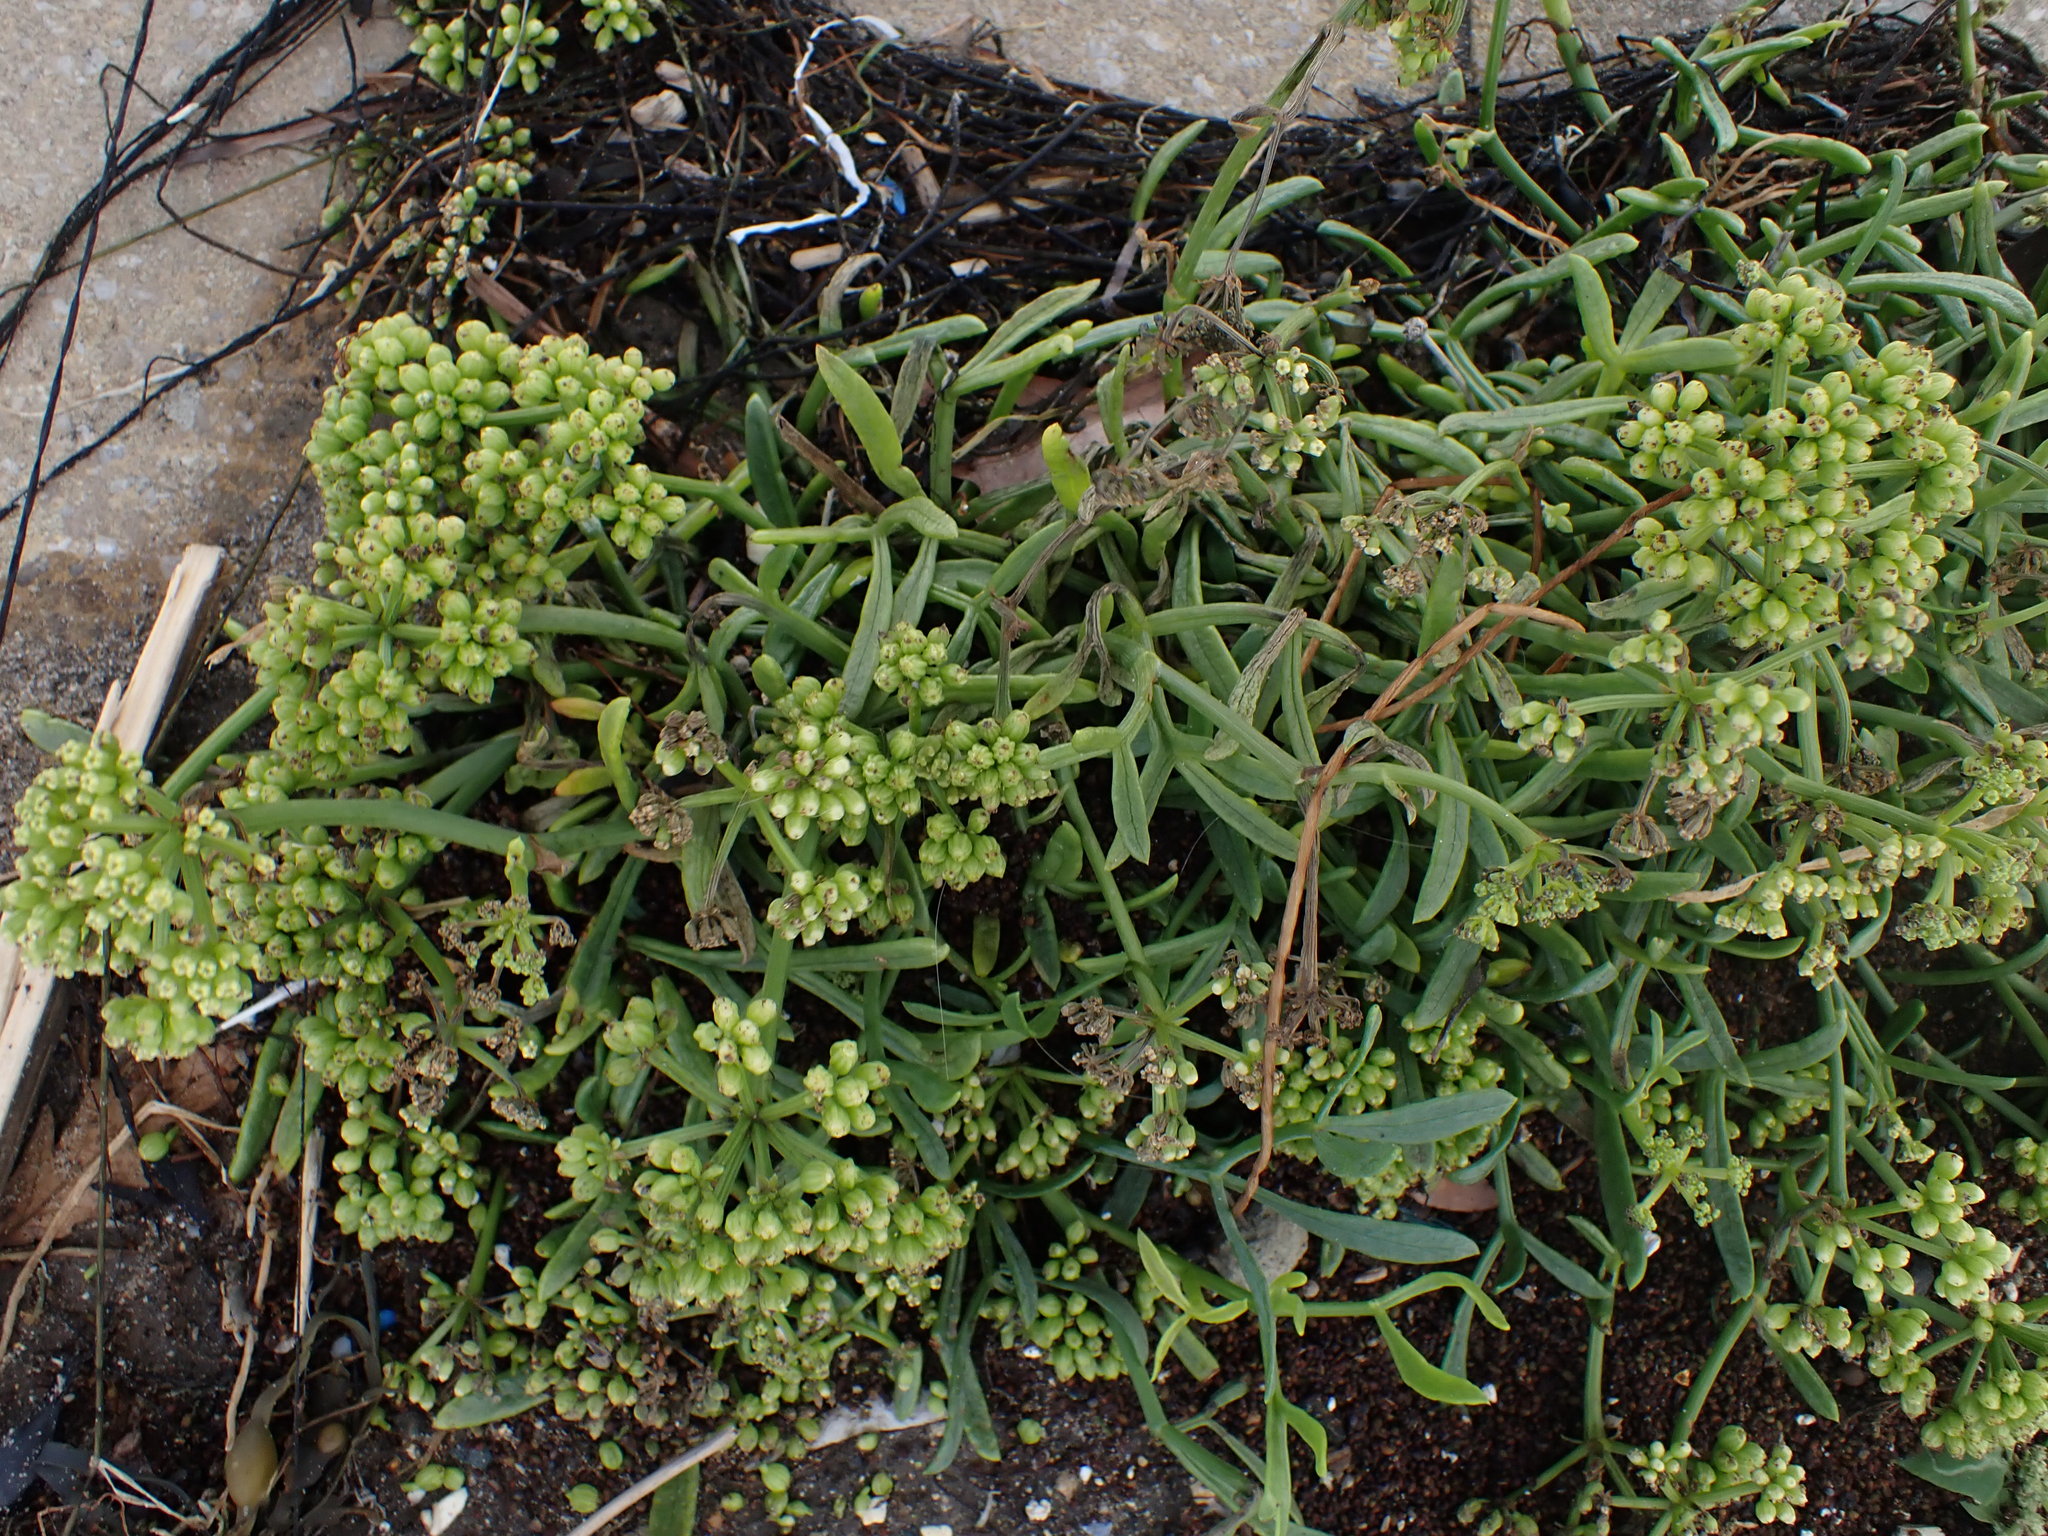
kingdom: Plantae
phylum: Tracheophyta
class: Magnoliopsida
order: Apiales
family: Apiaceae
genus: Crithmum
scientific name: Crithmum maritimum
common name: Rock samphire
